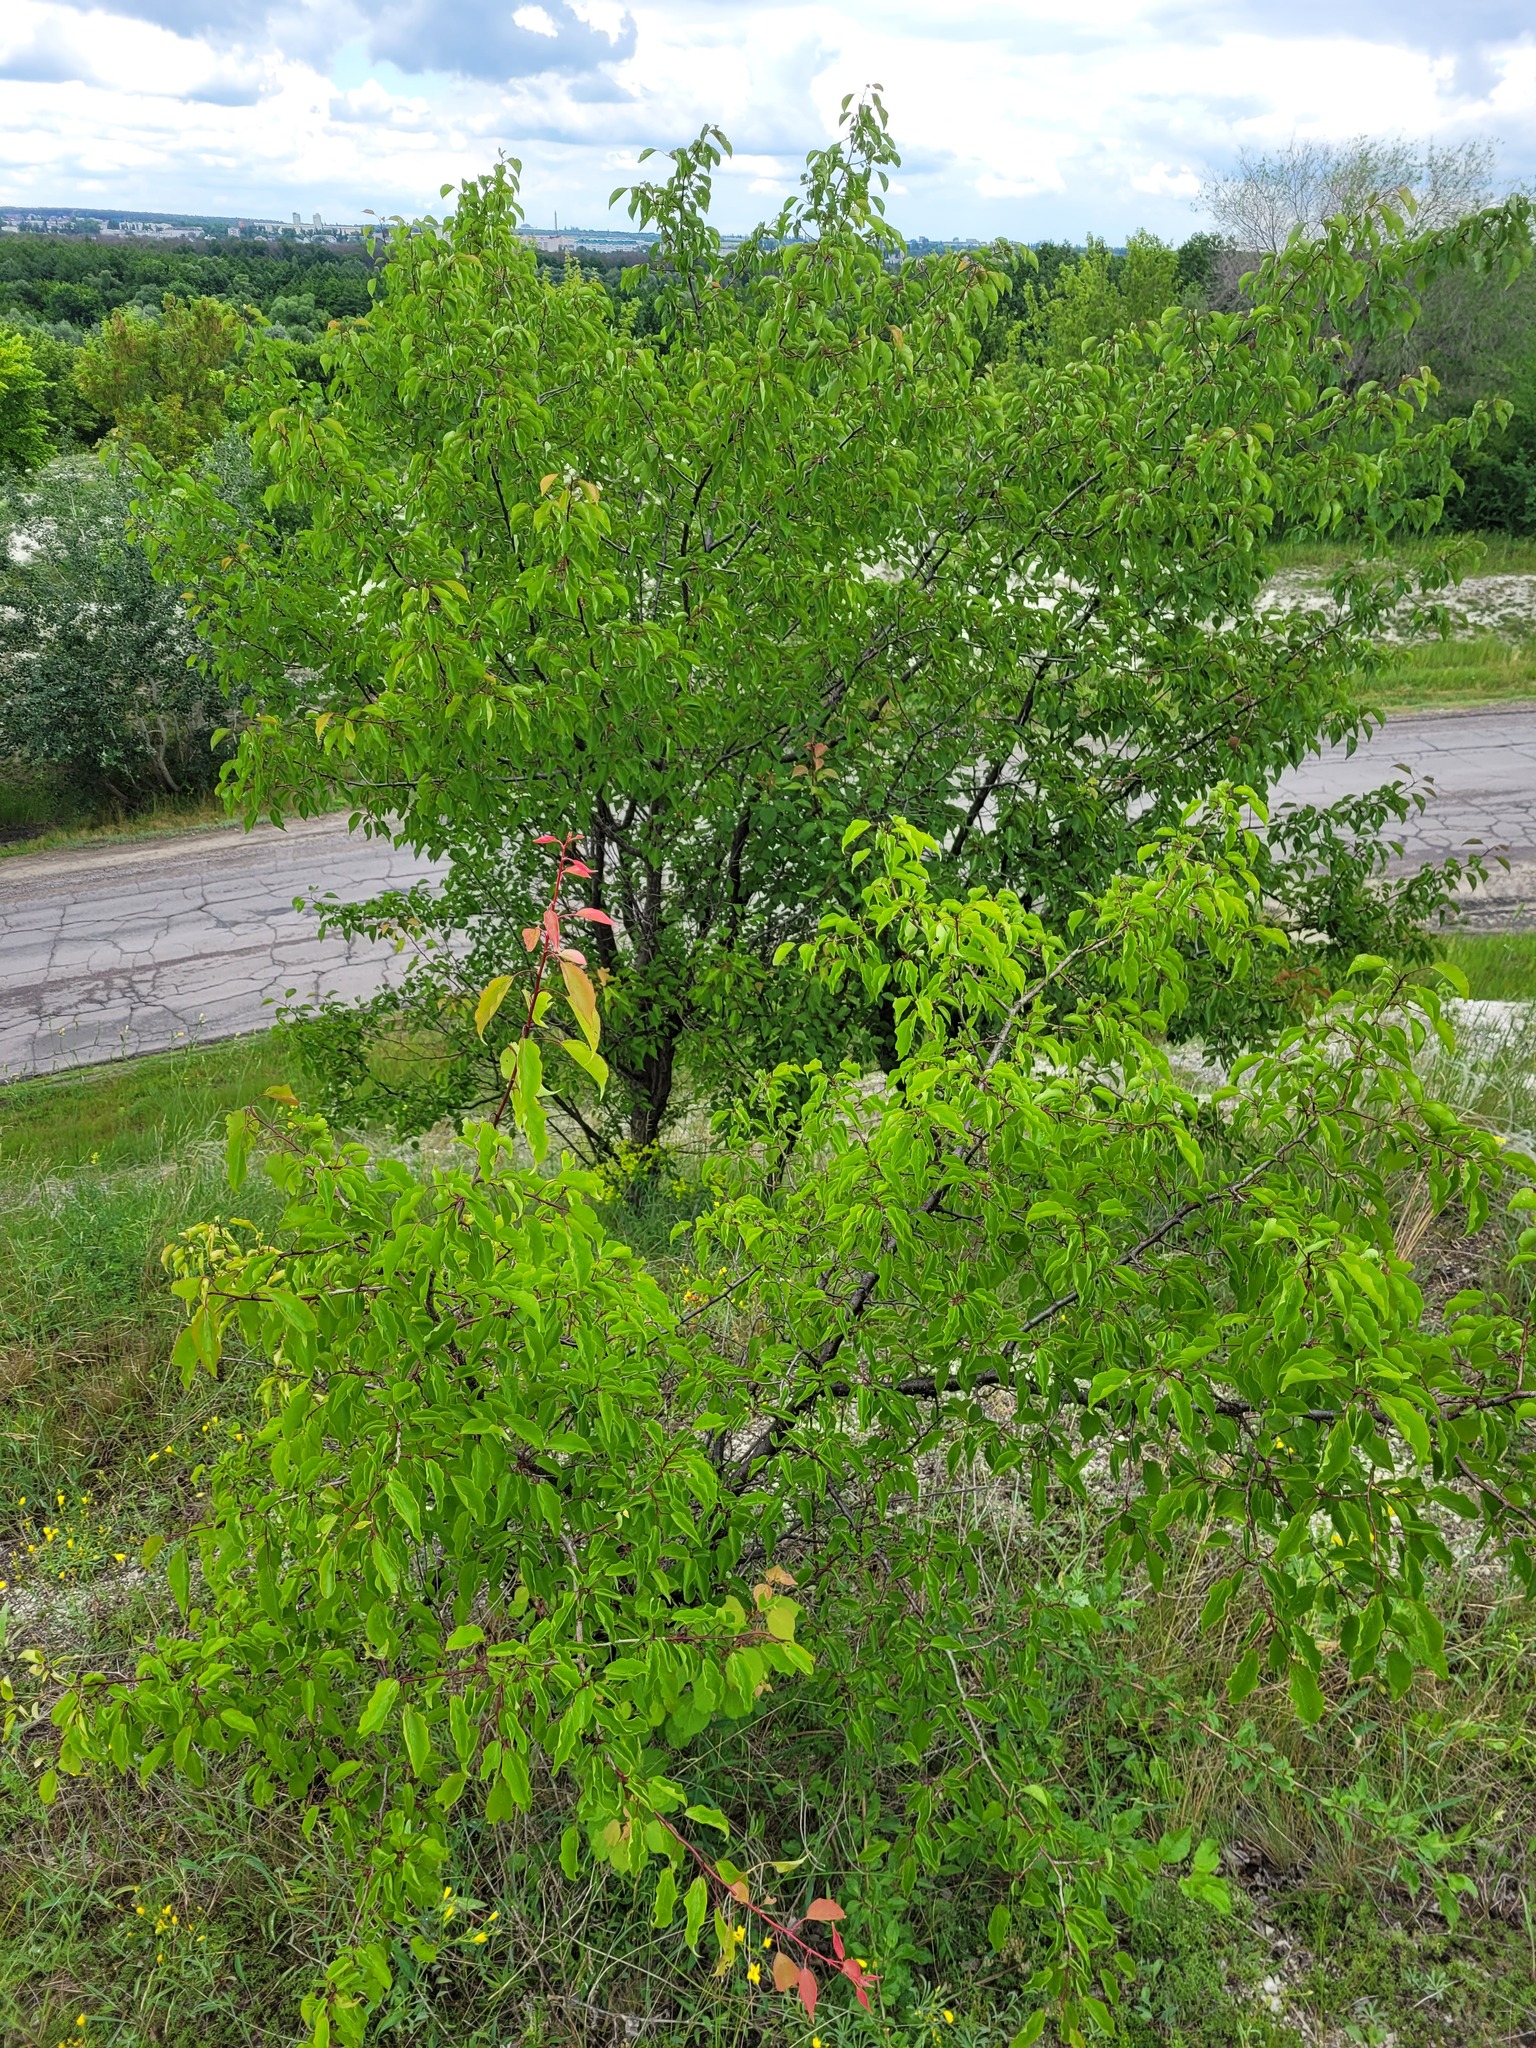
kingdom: Plantae
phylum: Tracheophyta
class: Magnoliopsida
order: Rosales
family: Rosaceae
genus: Prunus
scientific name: Prunus armeniaca
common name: Apricot
